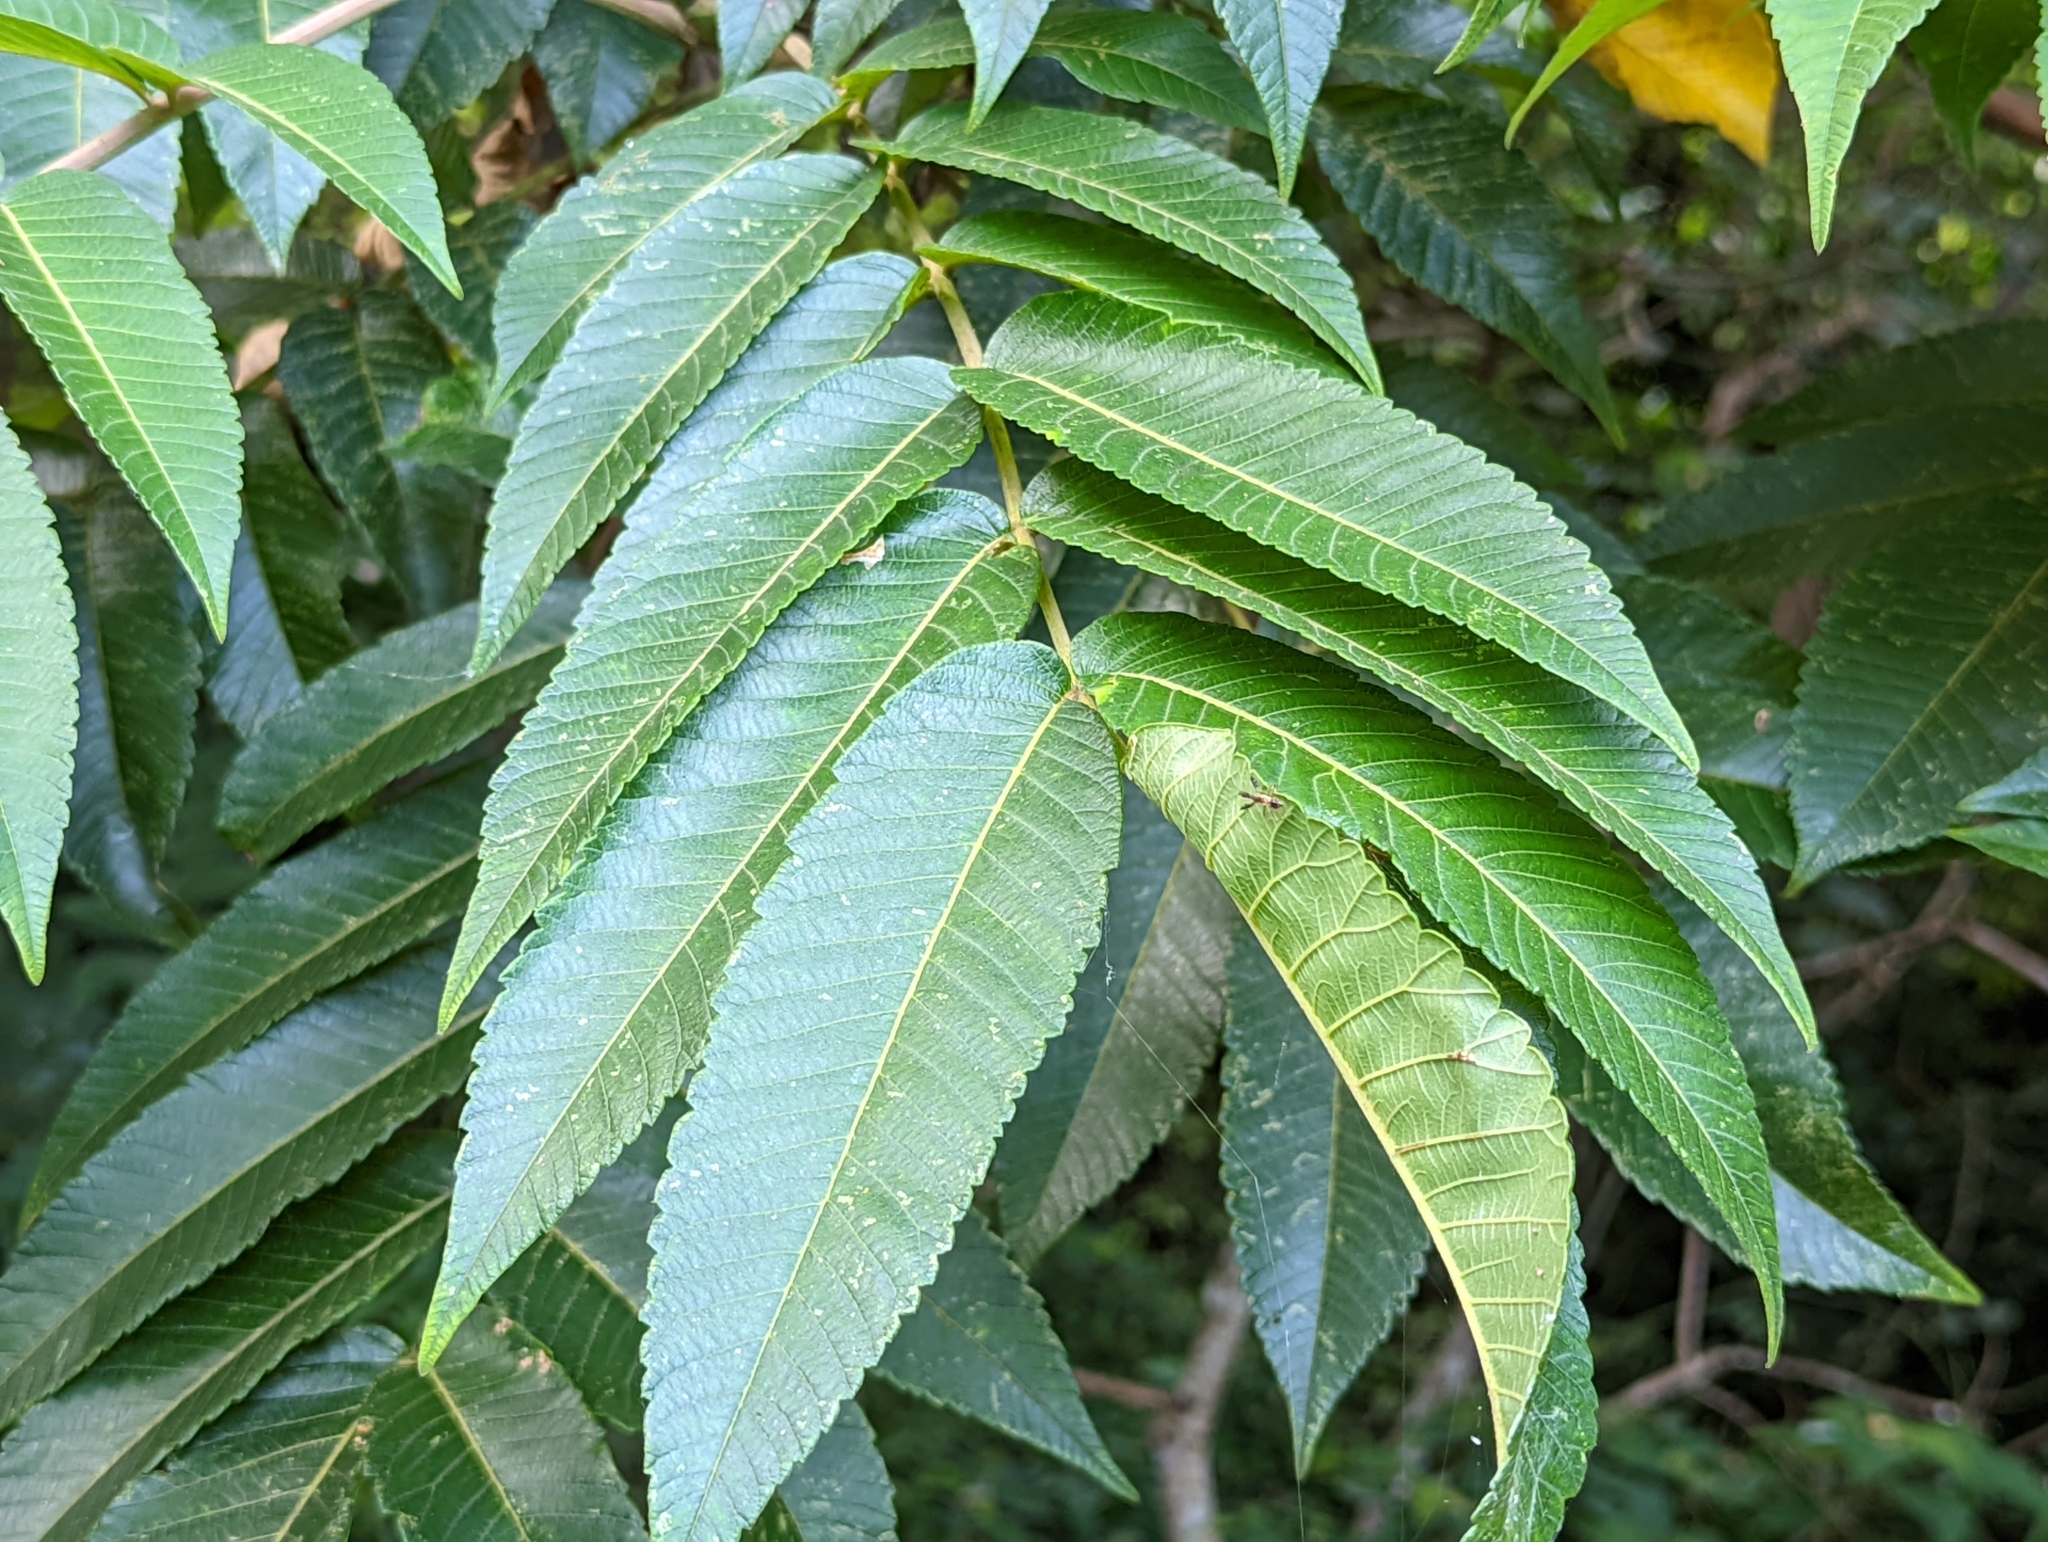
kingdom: Plantae
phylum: Tracheophyta
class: Magnoliopsida
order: Sapindales
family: Anacardiaceae
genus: Rhus
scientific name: Rhus chinensis
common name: Chinese gall
